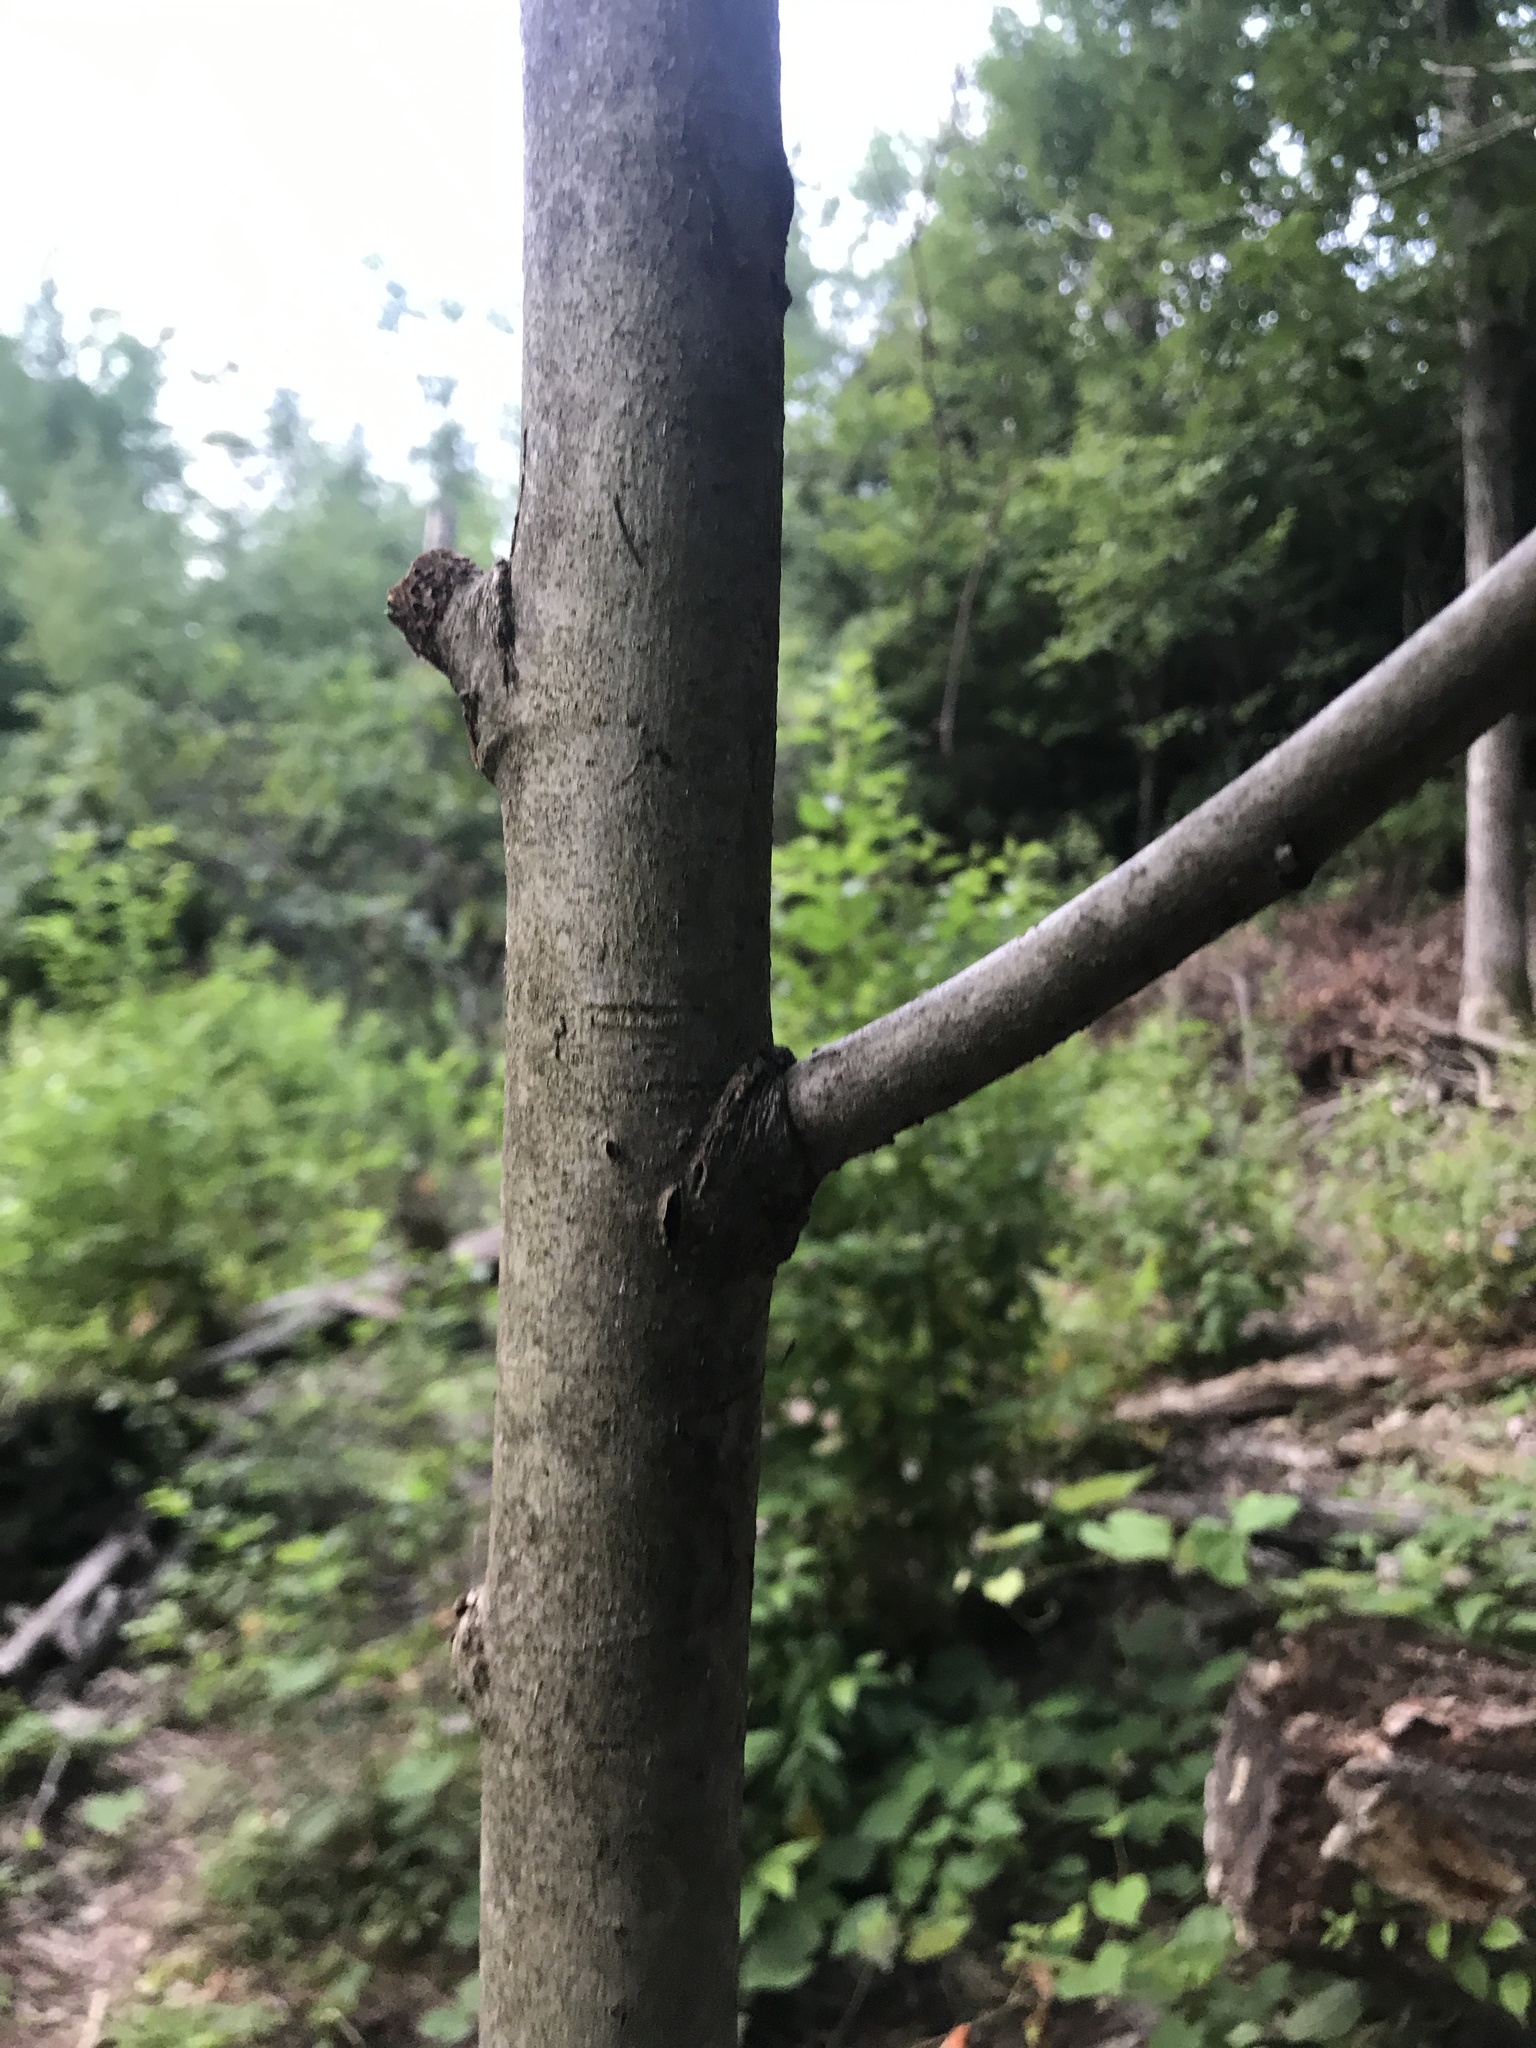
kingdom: Plantae
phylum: Tracheophyta
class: Magnoliopsida
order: Malvales
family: Malvaceae
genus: Tilia
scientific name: Tilia americana
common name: Basswood
